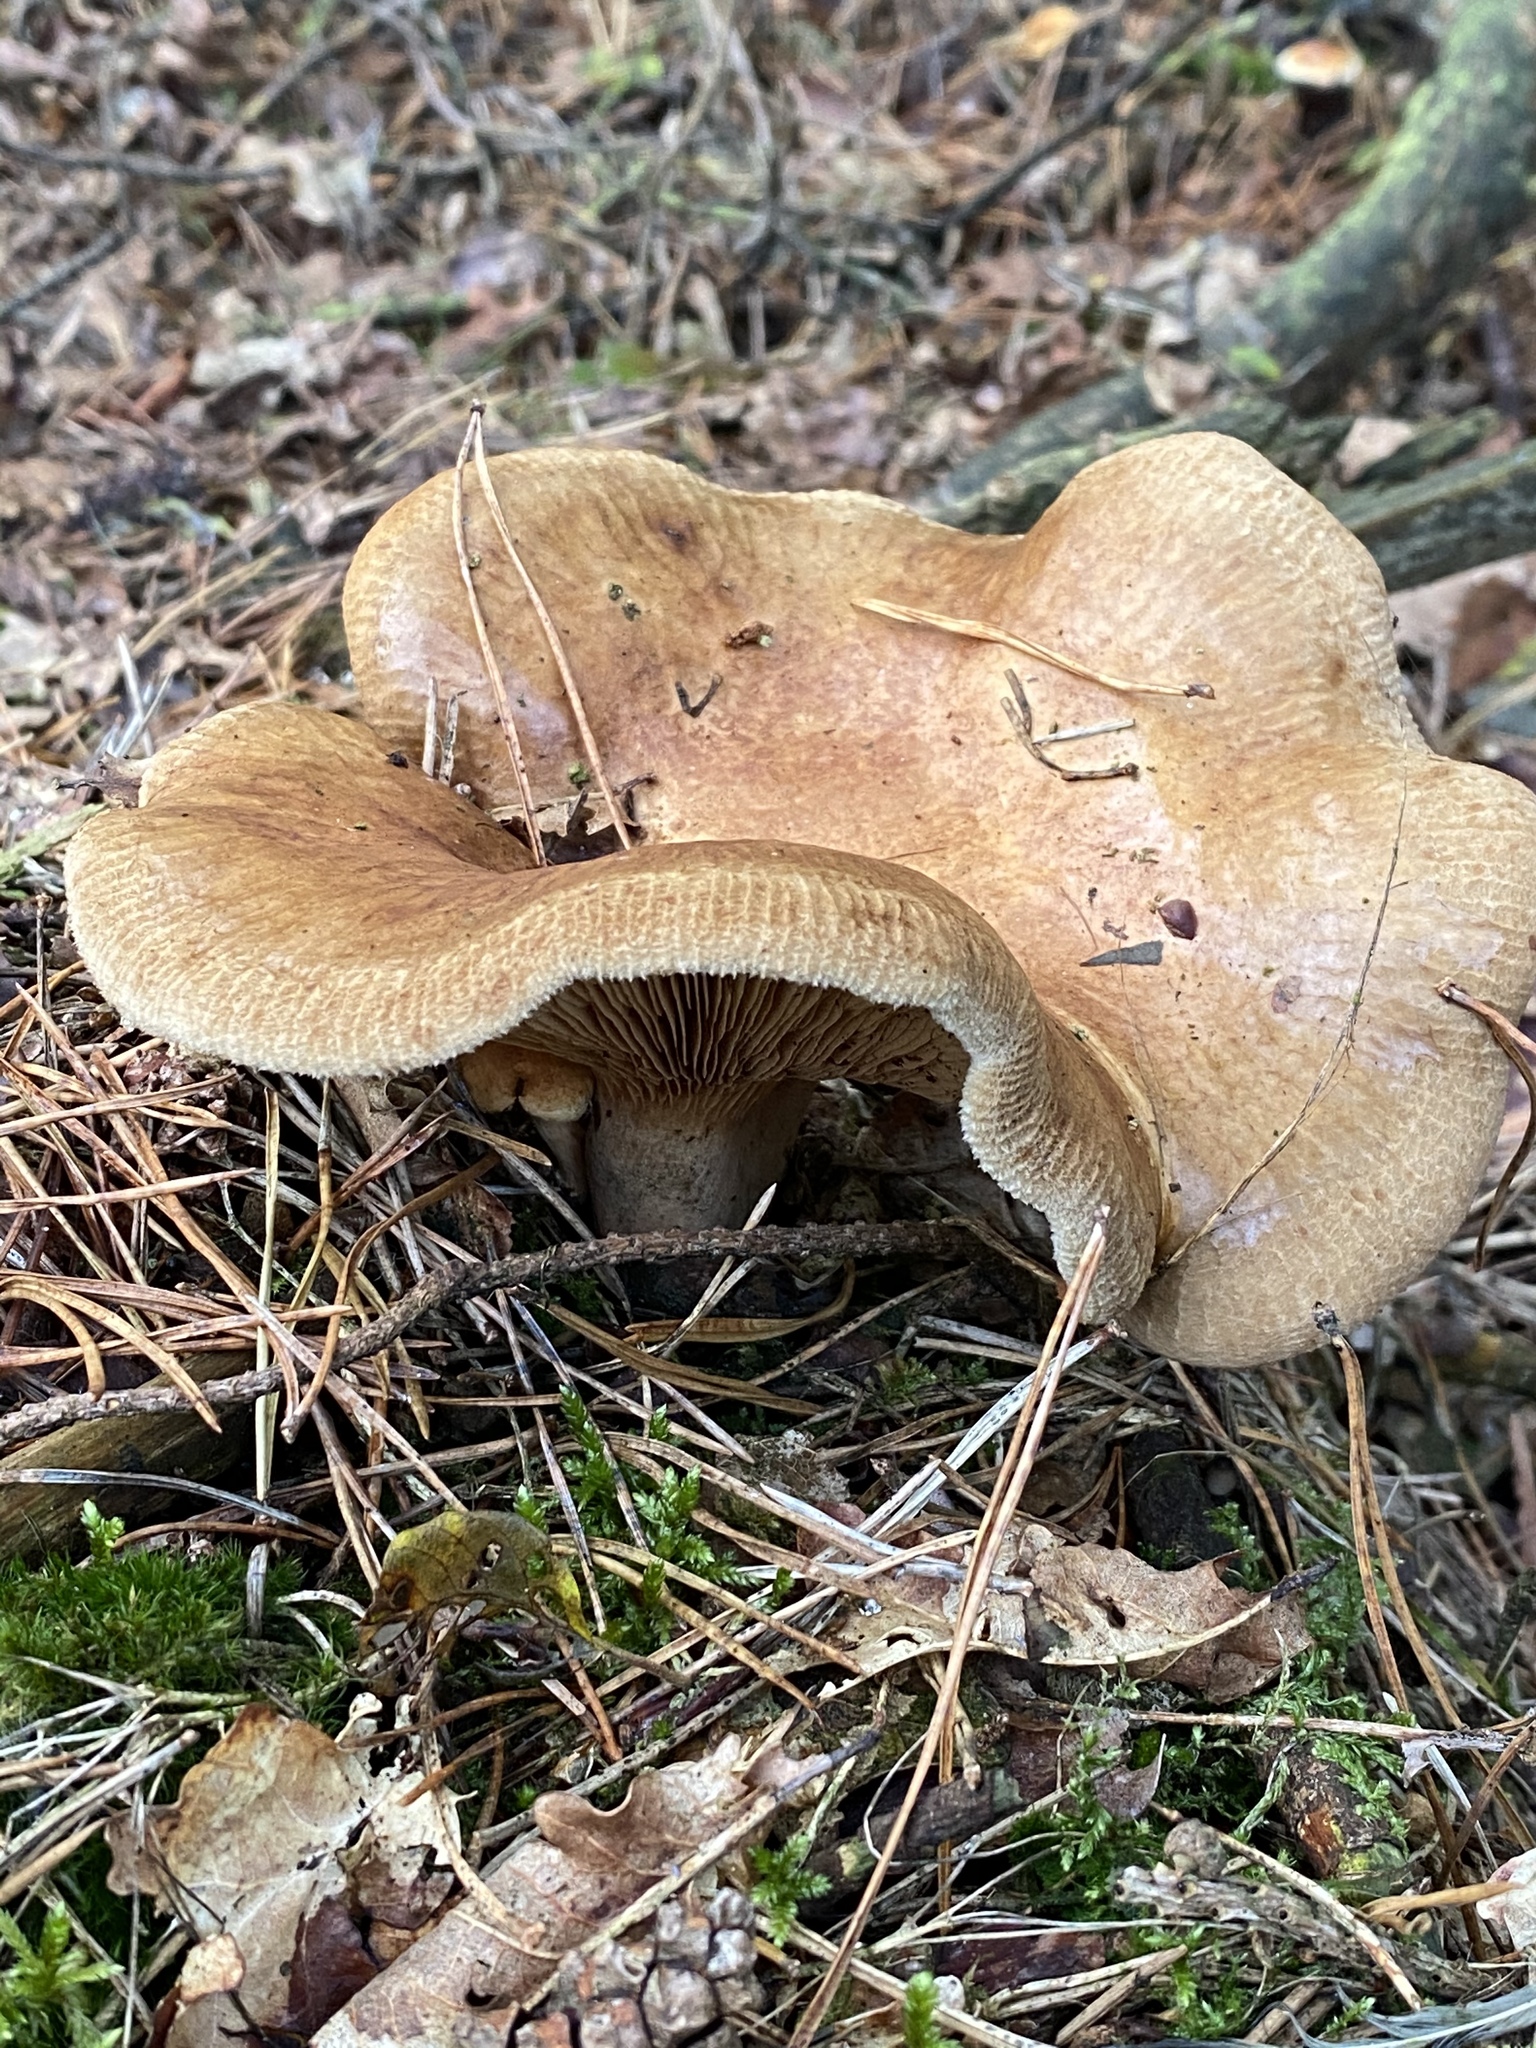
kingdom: Fungi
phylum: Basidiomycota
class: Agaricomycetes
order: Boletales
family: Paxillaceae
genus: Paxillus
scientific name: Paxillus involutus
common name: Brown roll rim
